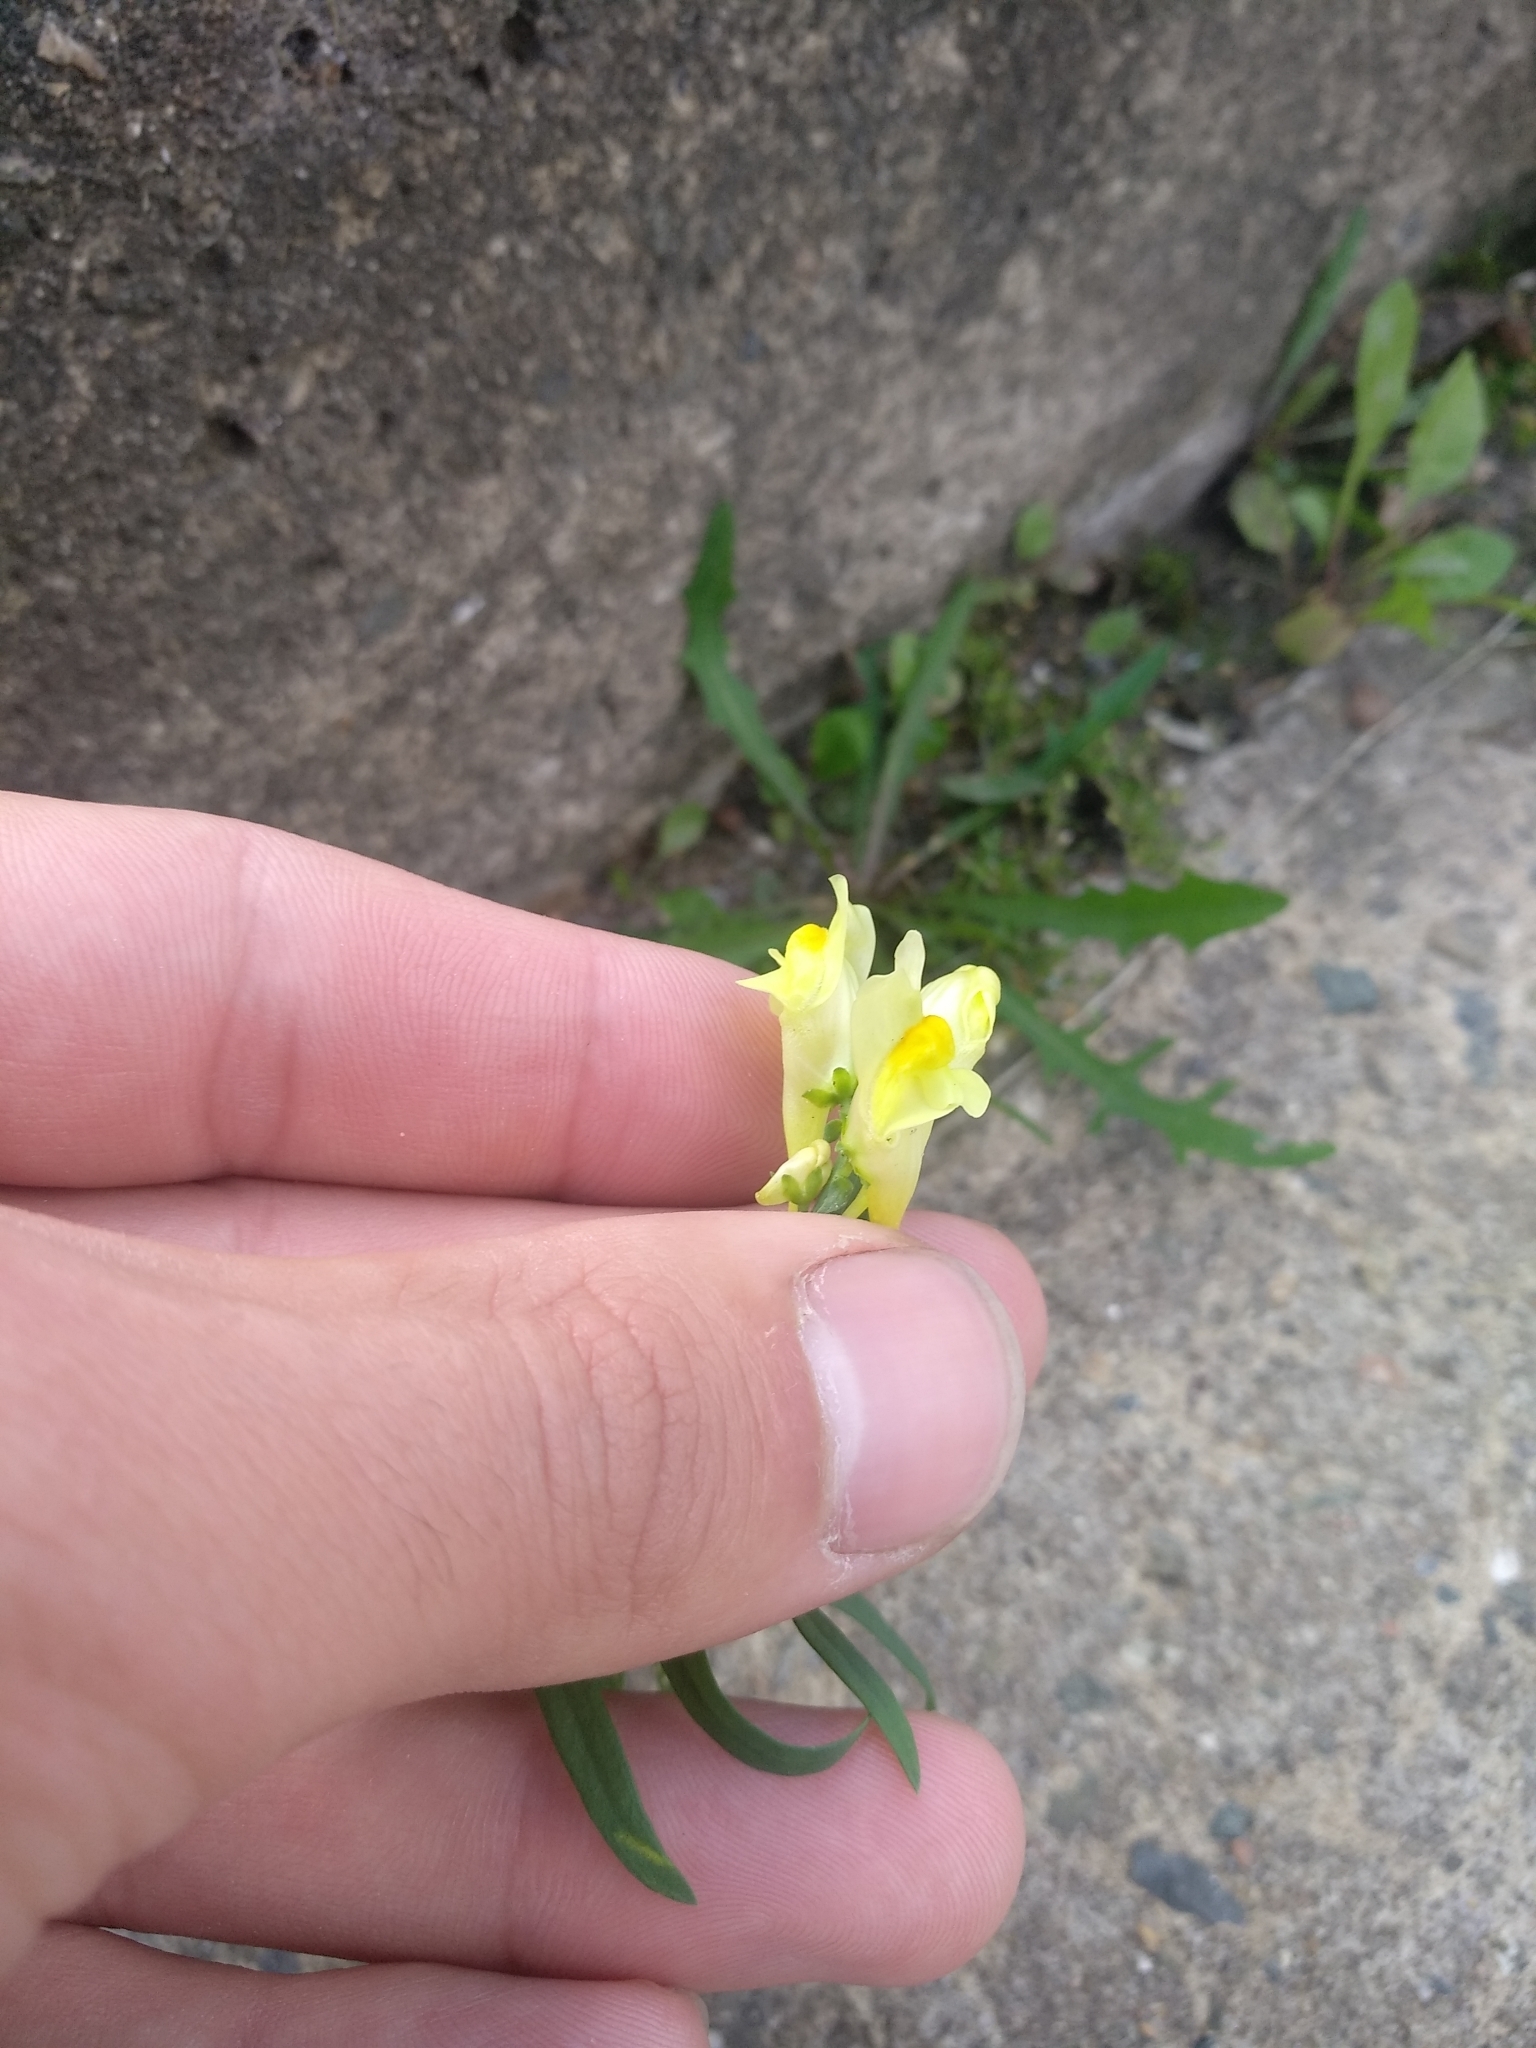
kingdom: Plantae
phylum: Tracheophyta
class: Magnoliopsida
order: Lamiales
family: Plantaginaceae
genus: Linaria
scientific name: Linaria vulgaris
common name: Butter and eggs
